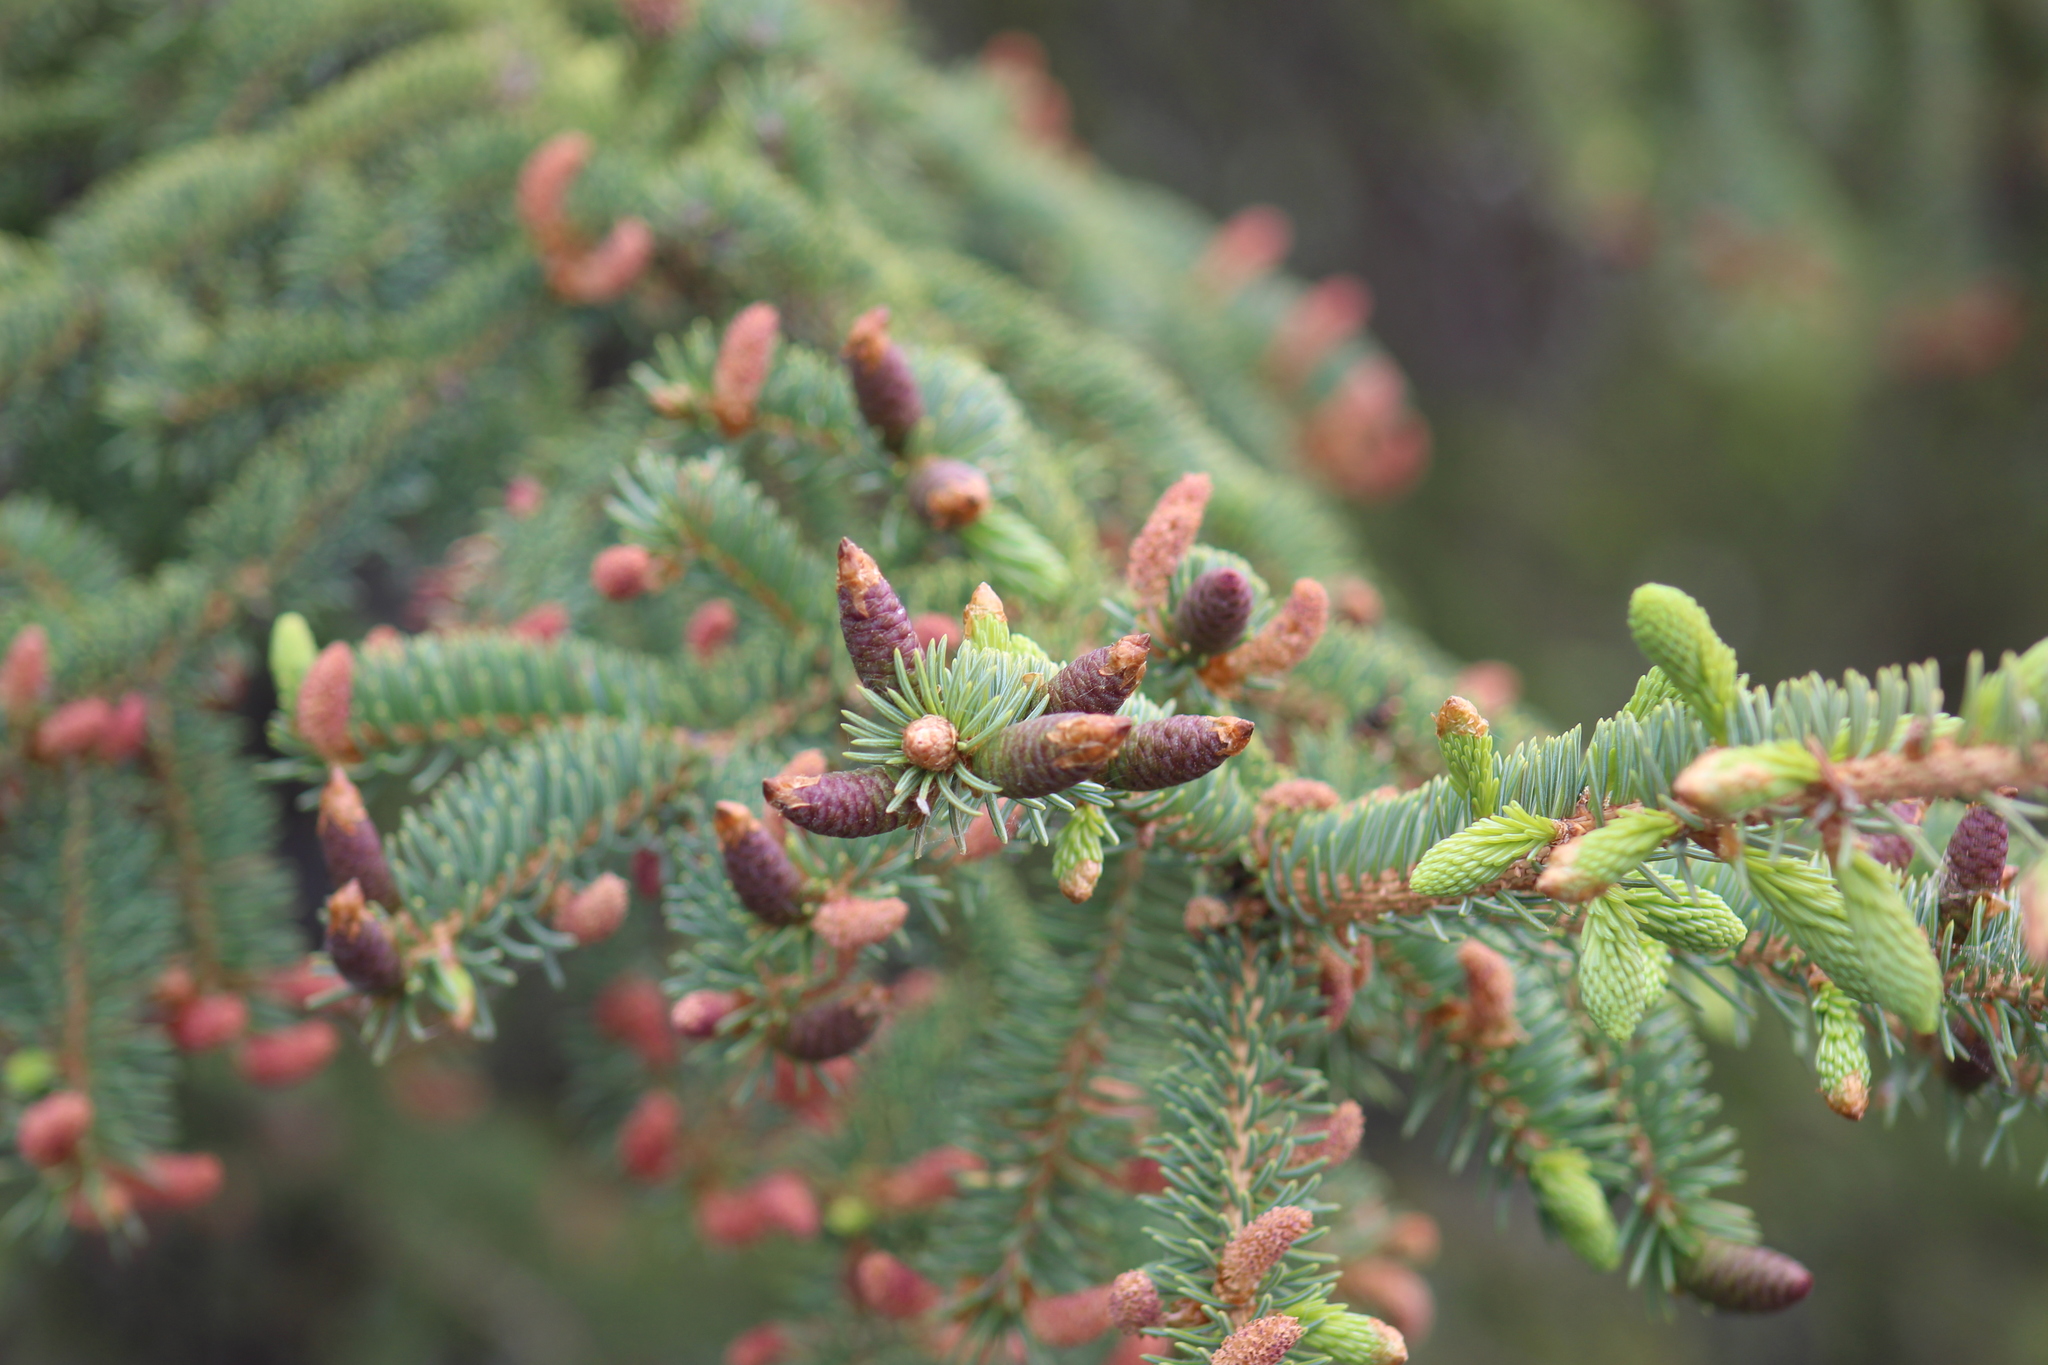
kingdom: Plantae
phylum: Tracheophyta
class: Pinopsida
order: Pinales
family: Pinaceae
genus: Picea
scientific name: Picea glauca
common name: White spruce
